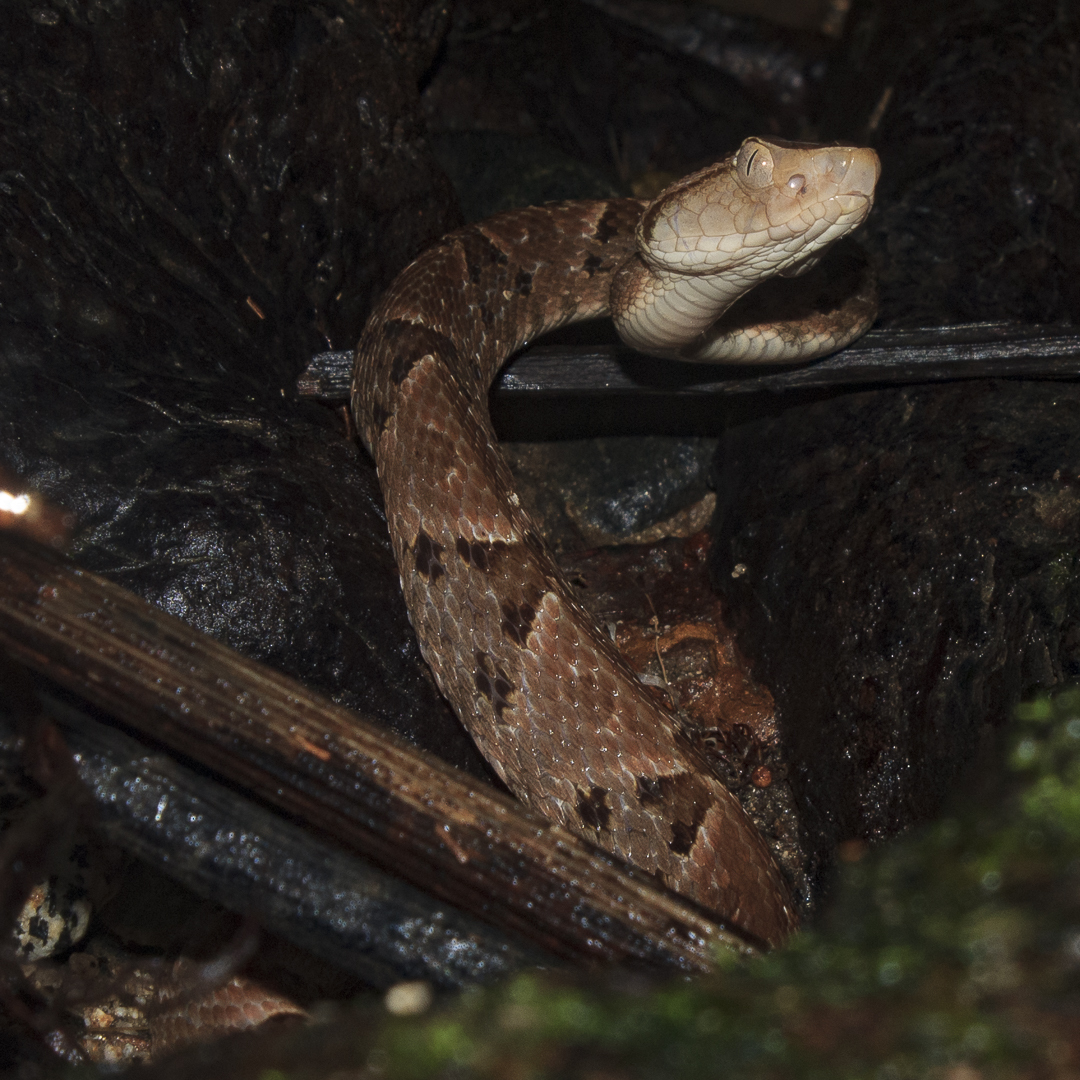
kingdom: Animalia
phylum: Chordata
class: Squamata
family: Viperidae
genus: Bothrops
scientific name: Bothrops asper
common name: Terciopelo
